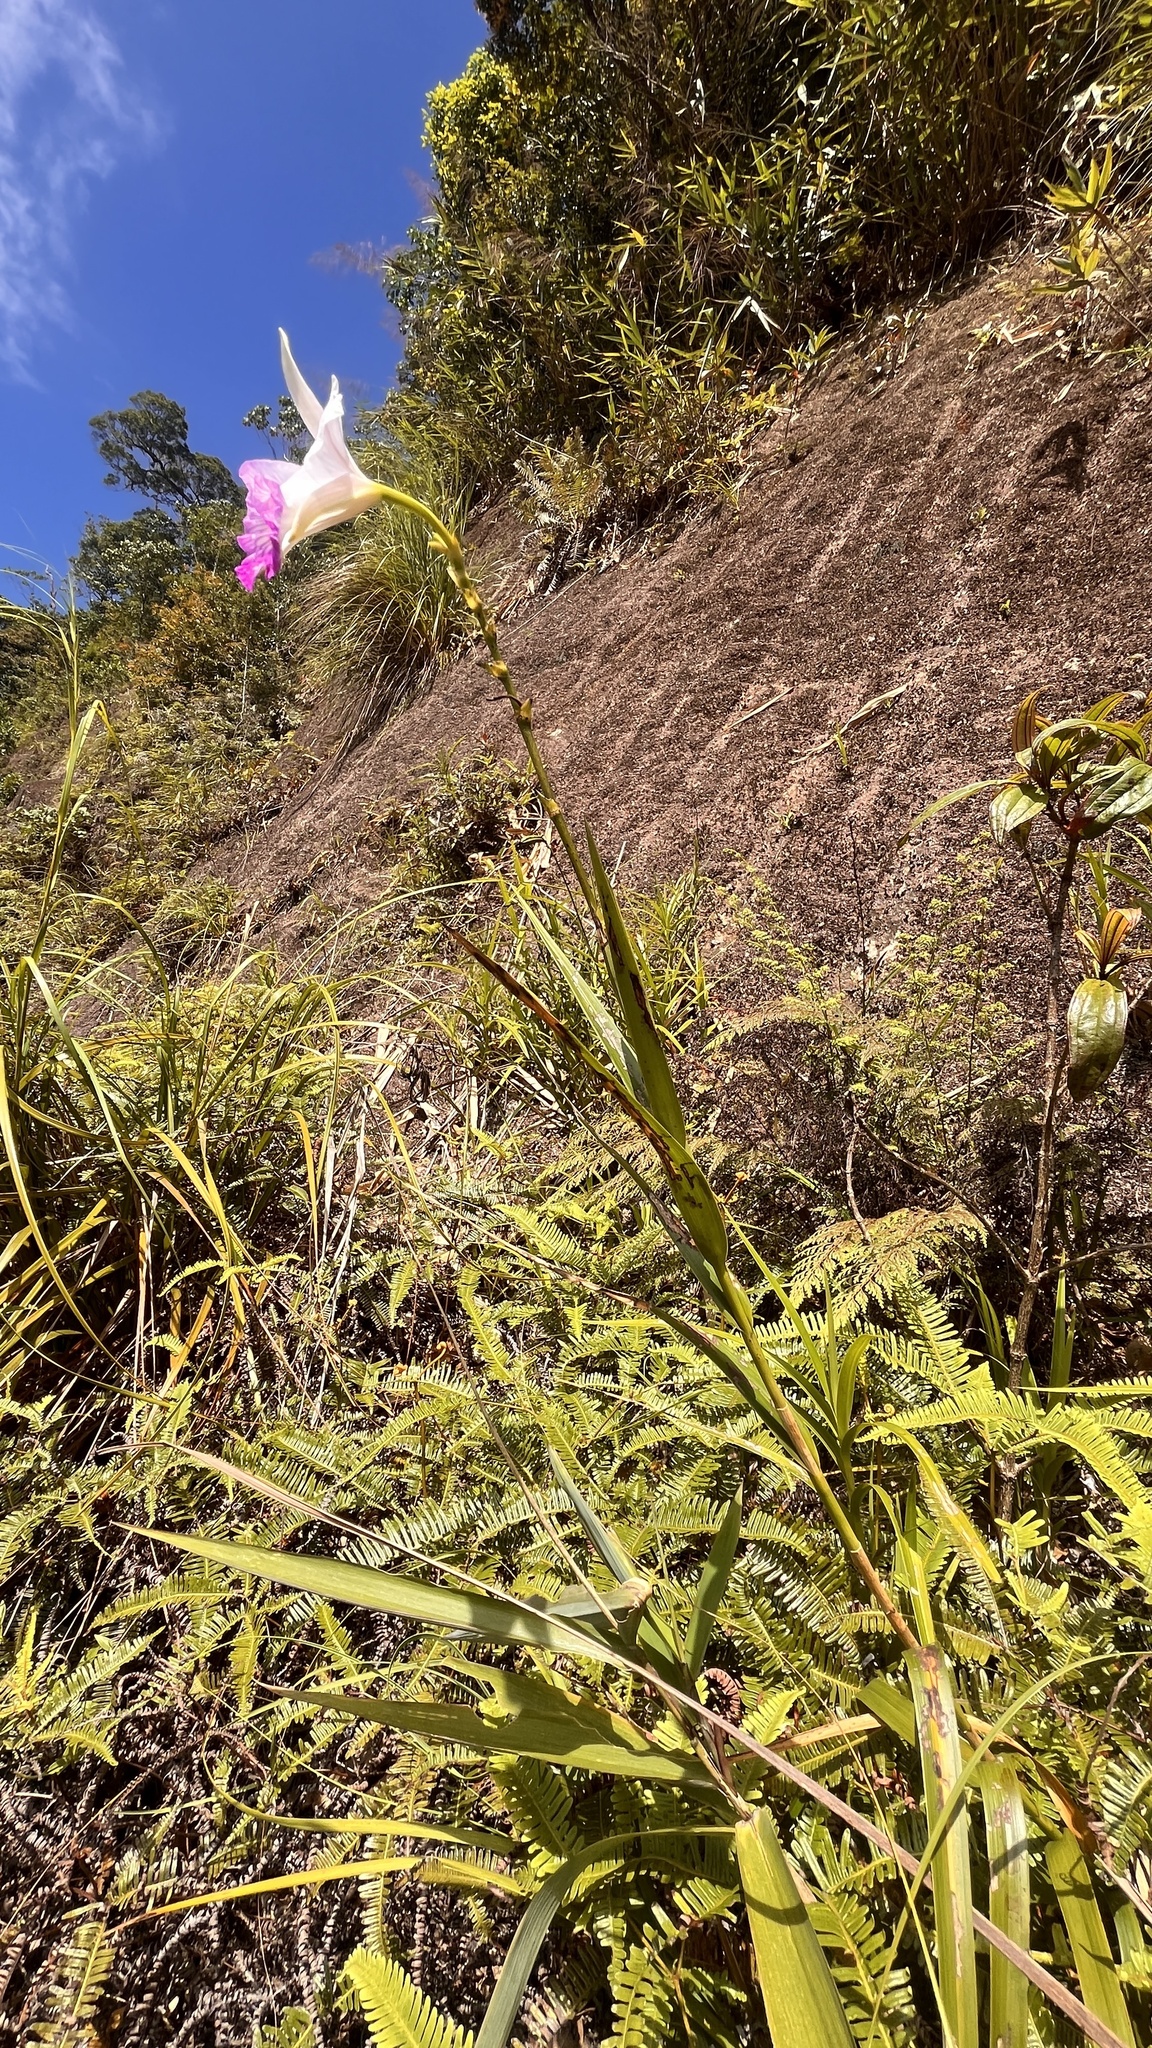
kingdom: Plantae
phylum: Tracheophyta
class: Liliopsida
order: Asparagales
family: Orchidaceae
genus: Arundina
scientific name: Arundina graminifolia
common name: Bamboo orchid
